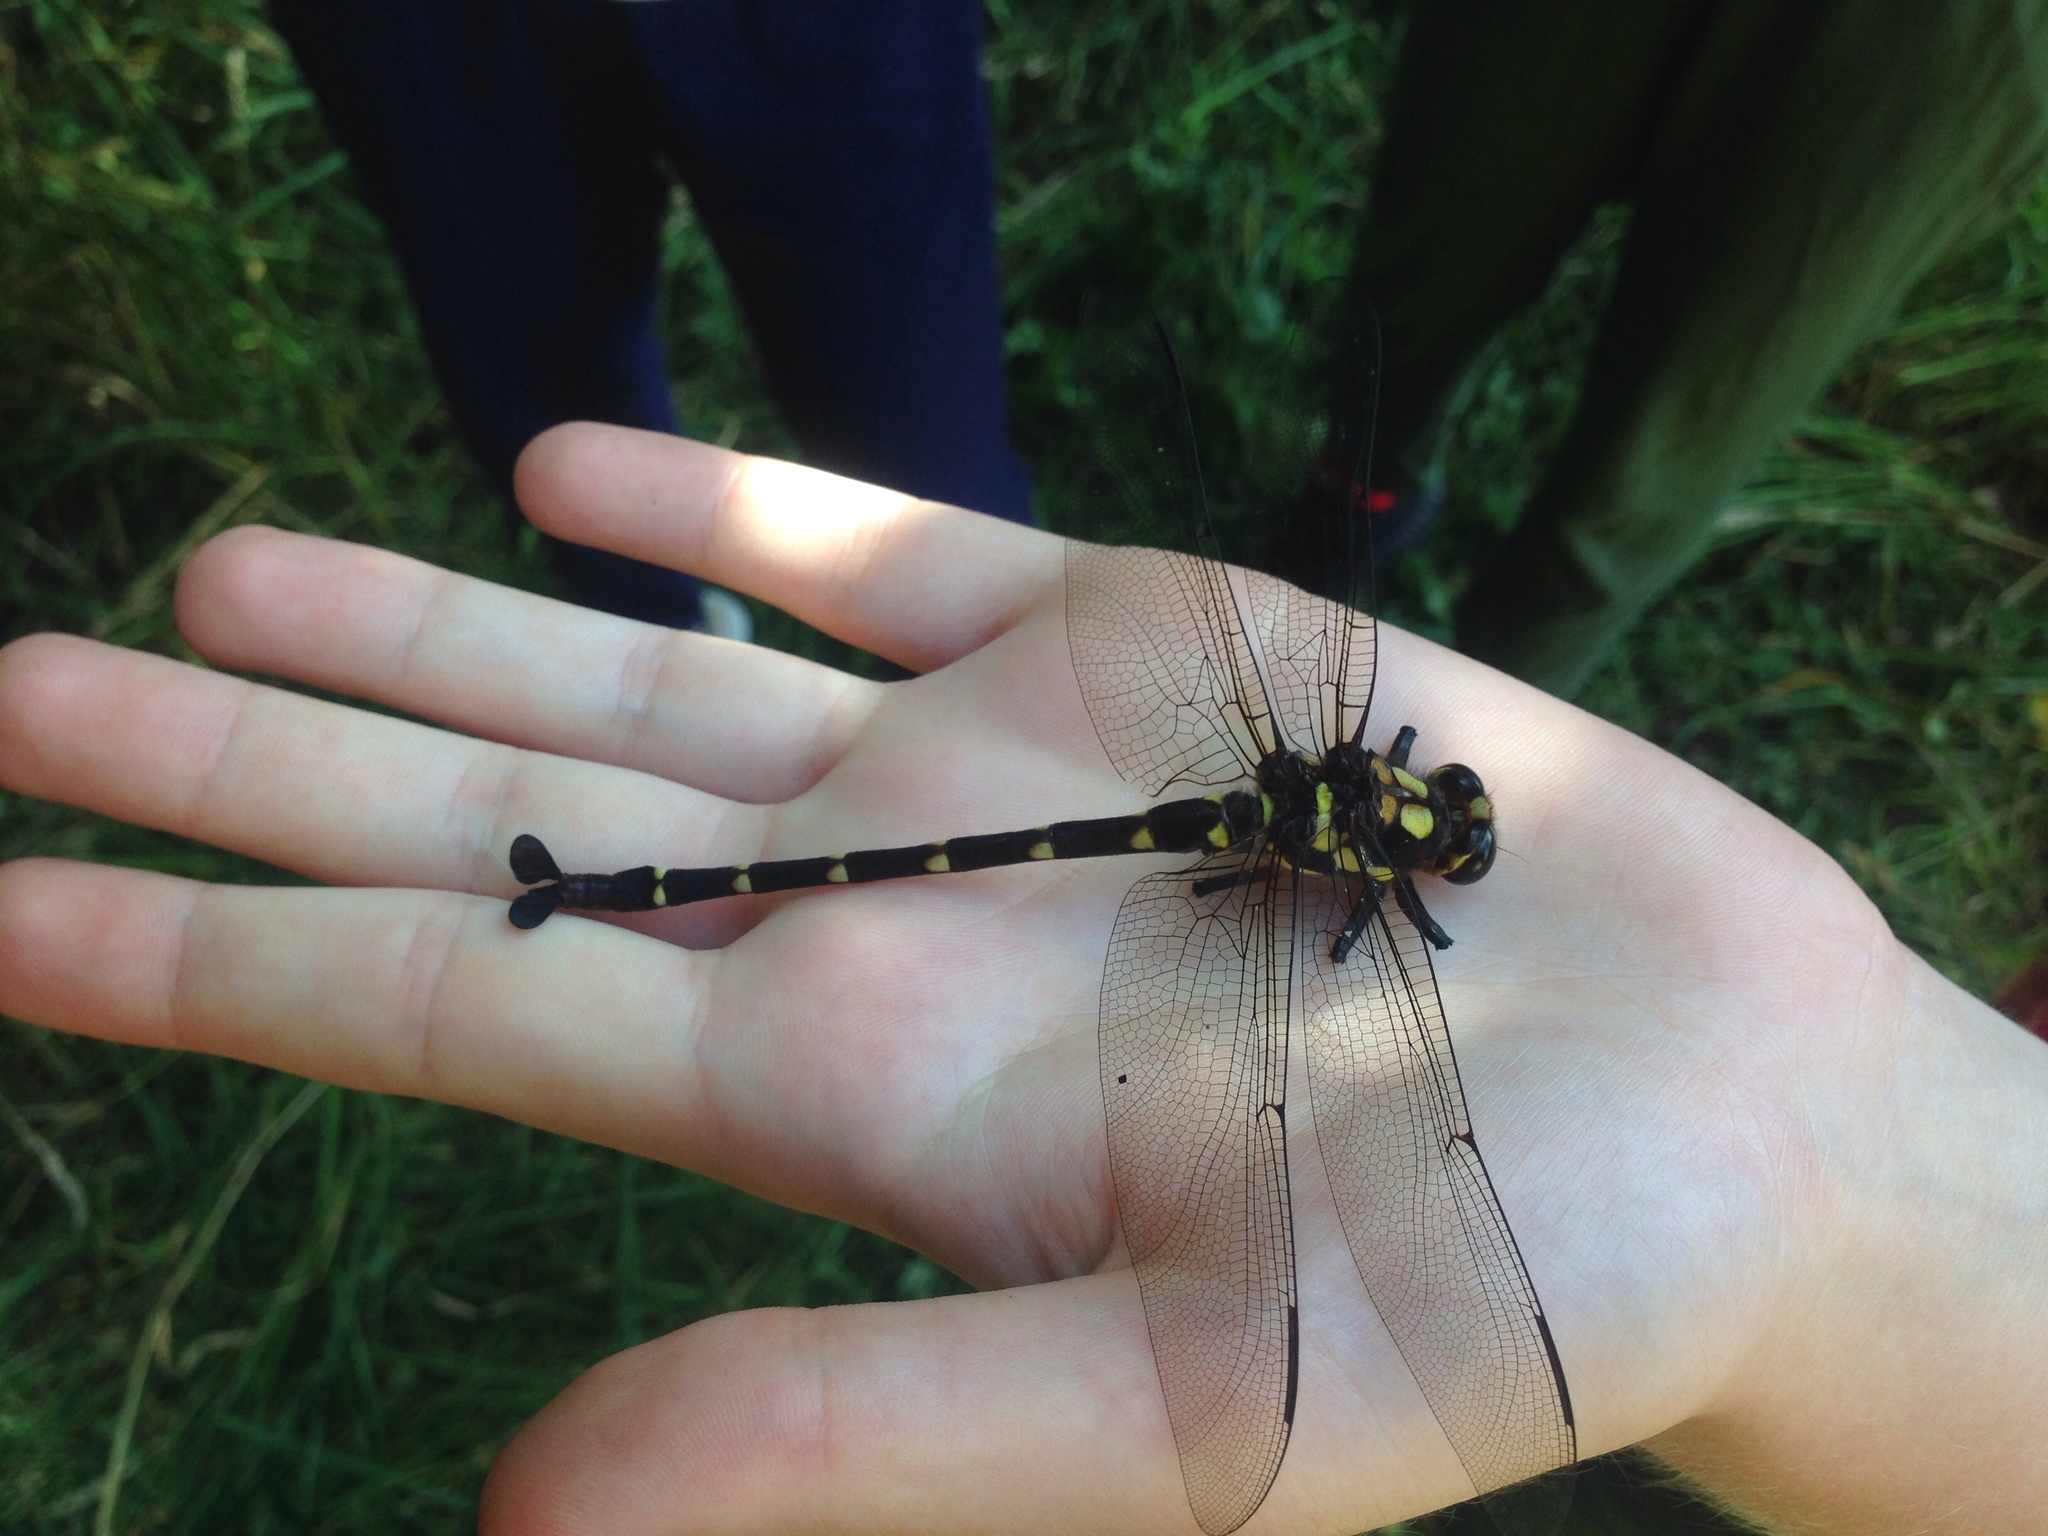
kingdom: Animalia
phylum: Arthropoda
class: Insecta
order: Odonata
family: Petaluridae
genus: Uropetala
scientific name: Uropetala carovei
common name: Bush giant dragonfly
